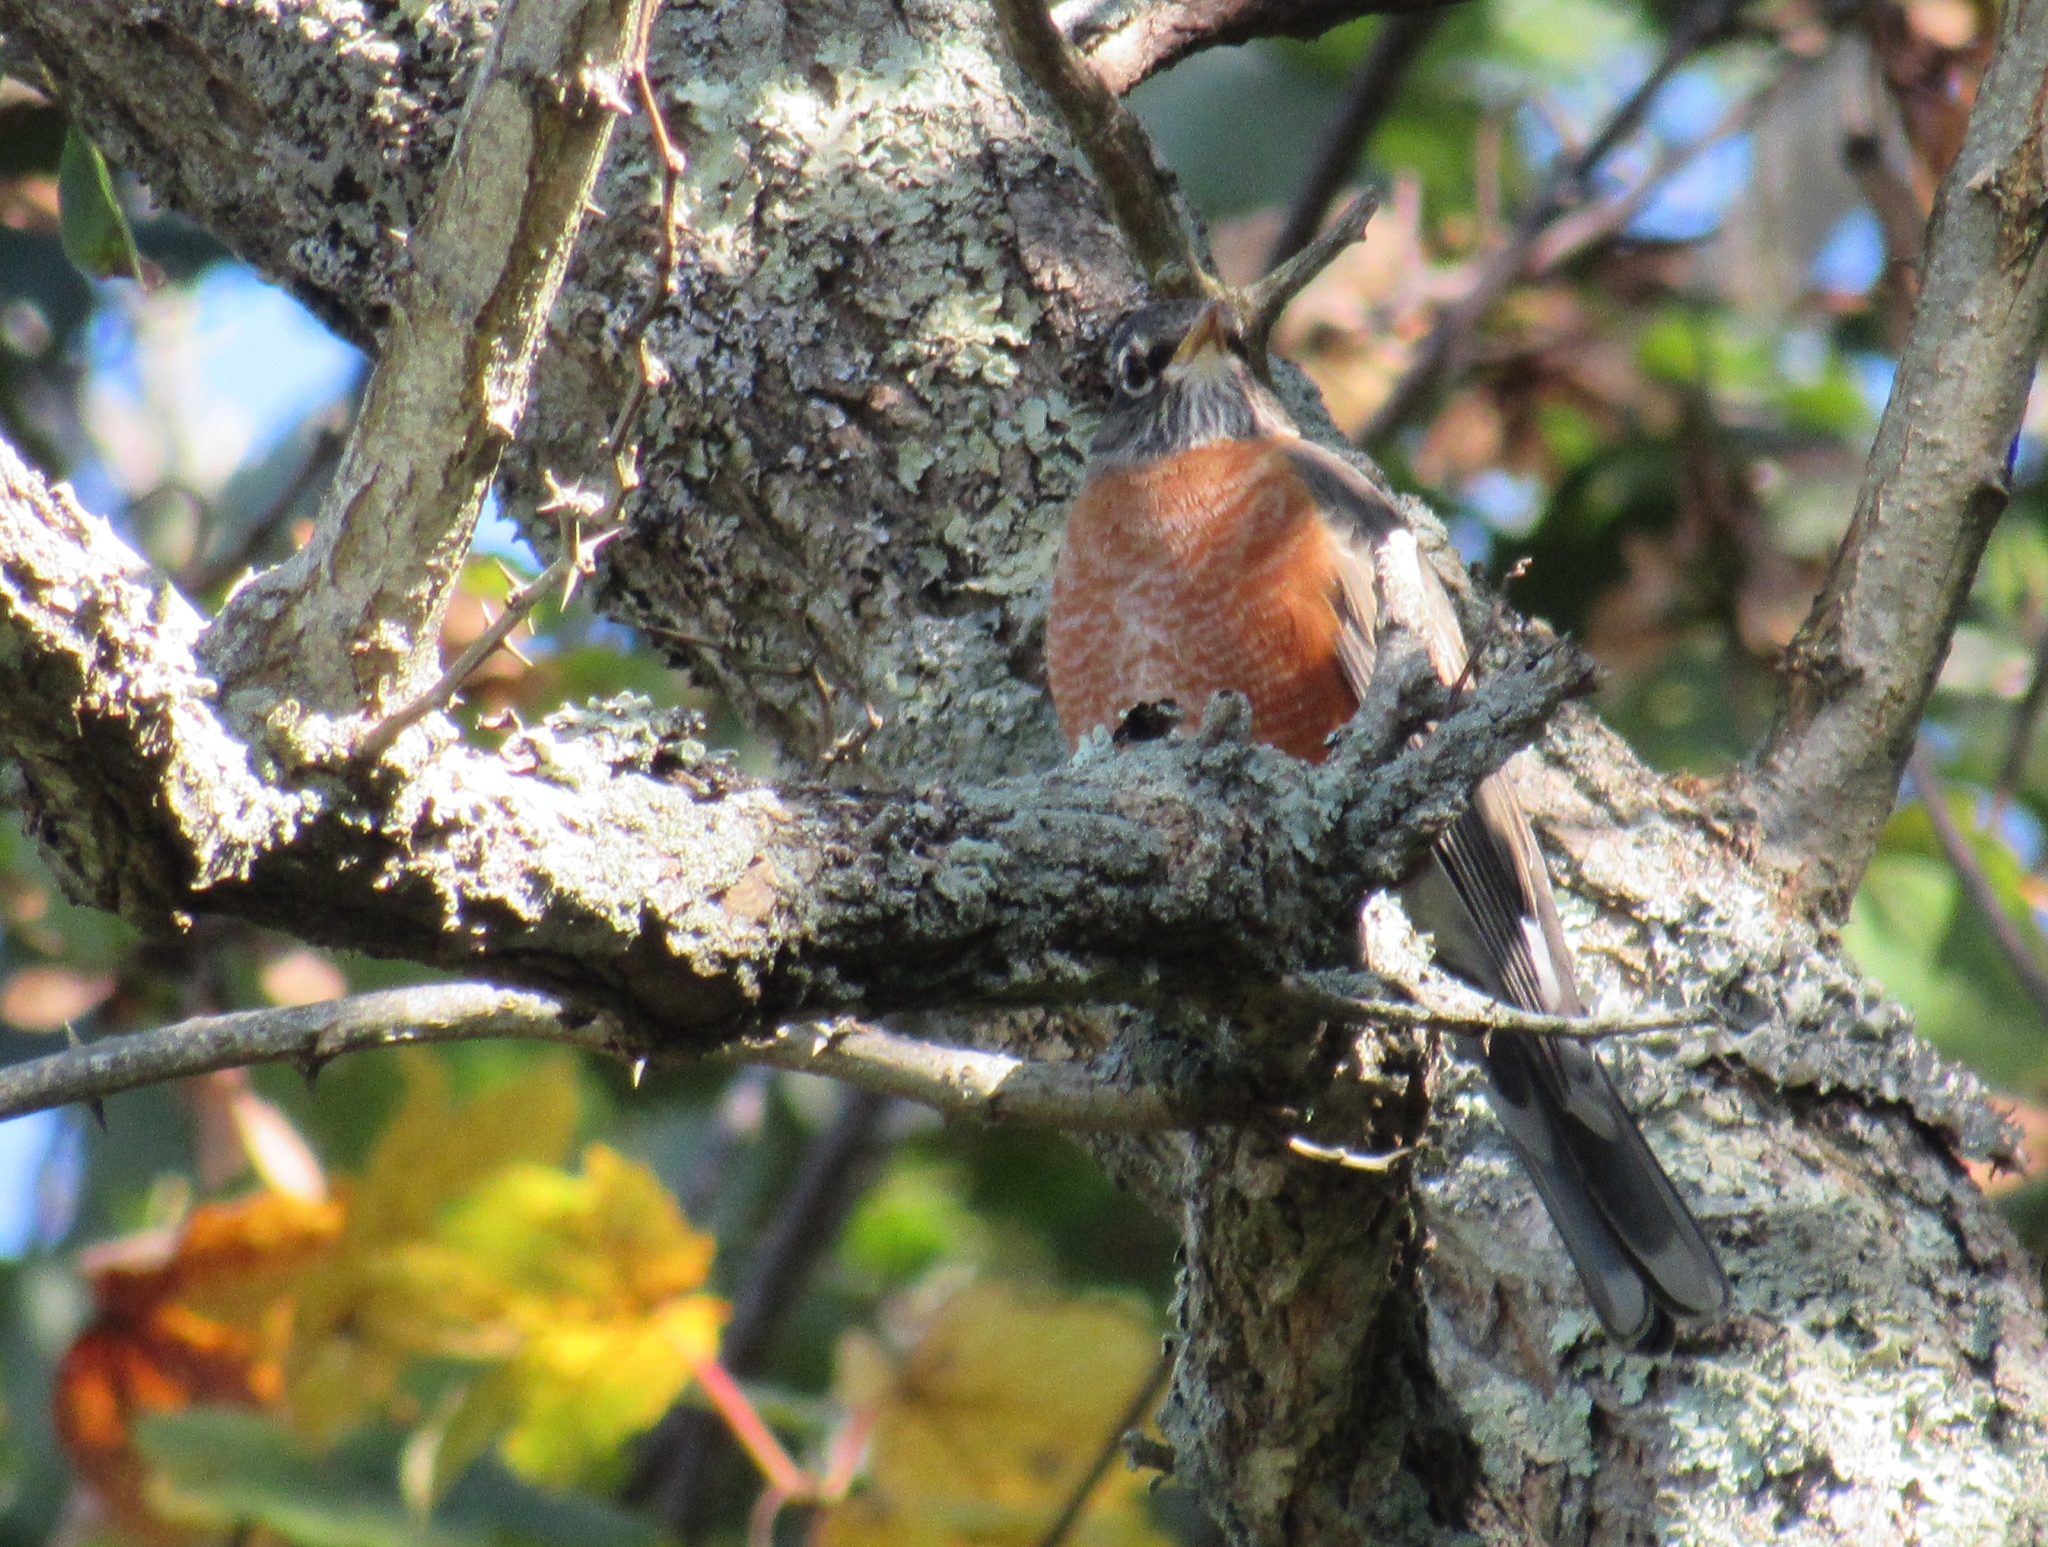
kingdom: Animalia
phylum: Chordata
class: Aves
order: Passeriformes
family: Turdidae
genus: Turdus
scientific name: Turdus migratorius
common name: American robin
